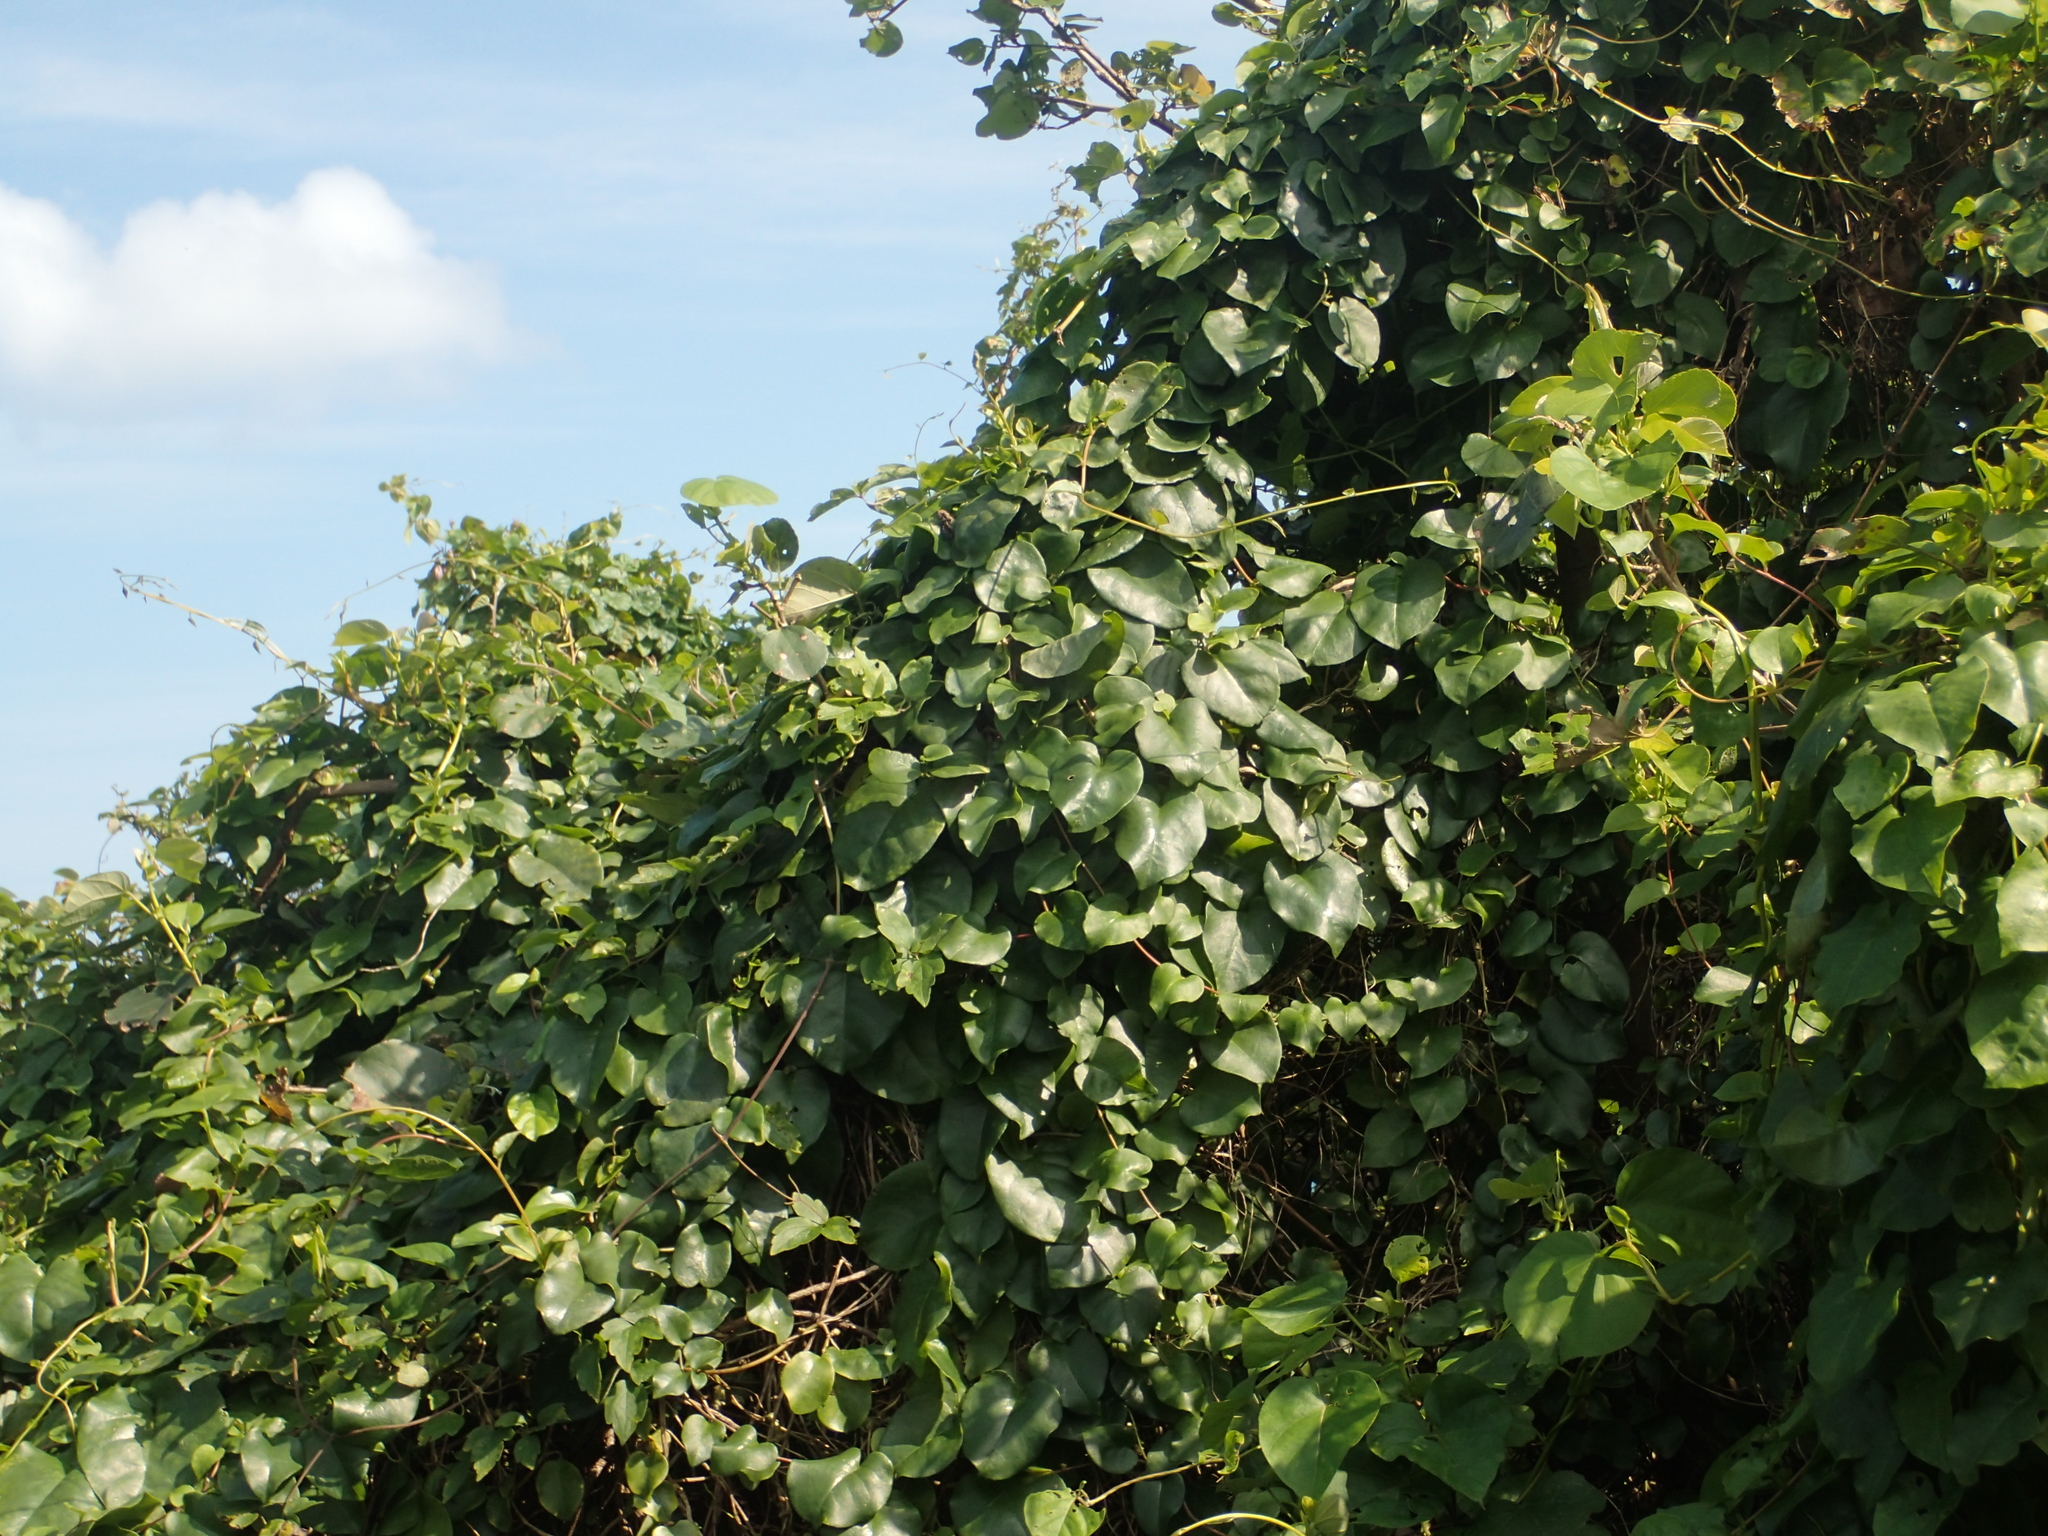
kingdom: Plantae
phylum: Tracheophyta
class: Magnoliopsida
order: Caryophyllales
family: Basellaceae
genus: Anredera
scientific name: Anredera cordifolia
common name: Heartleaf madeiravine
